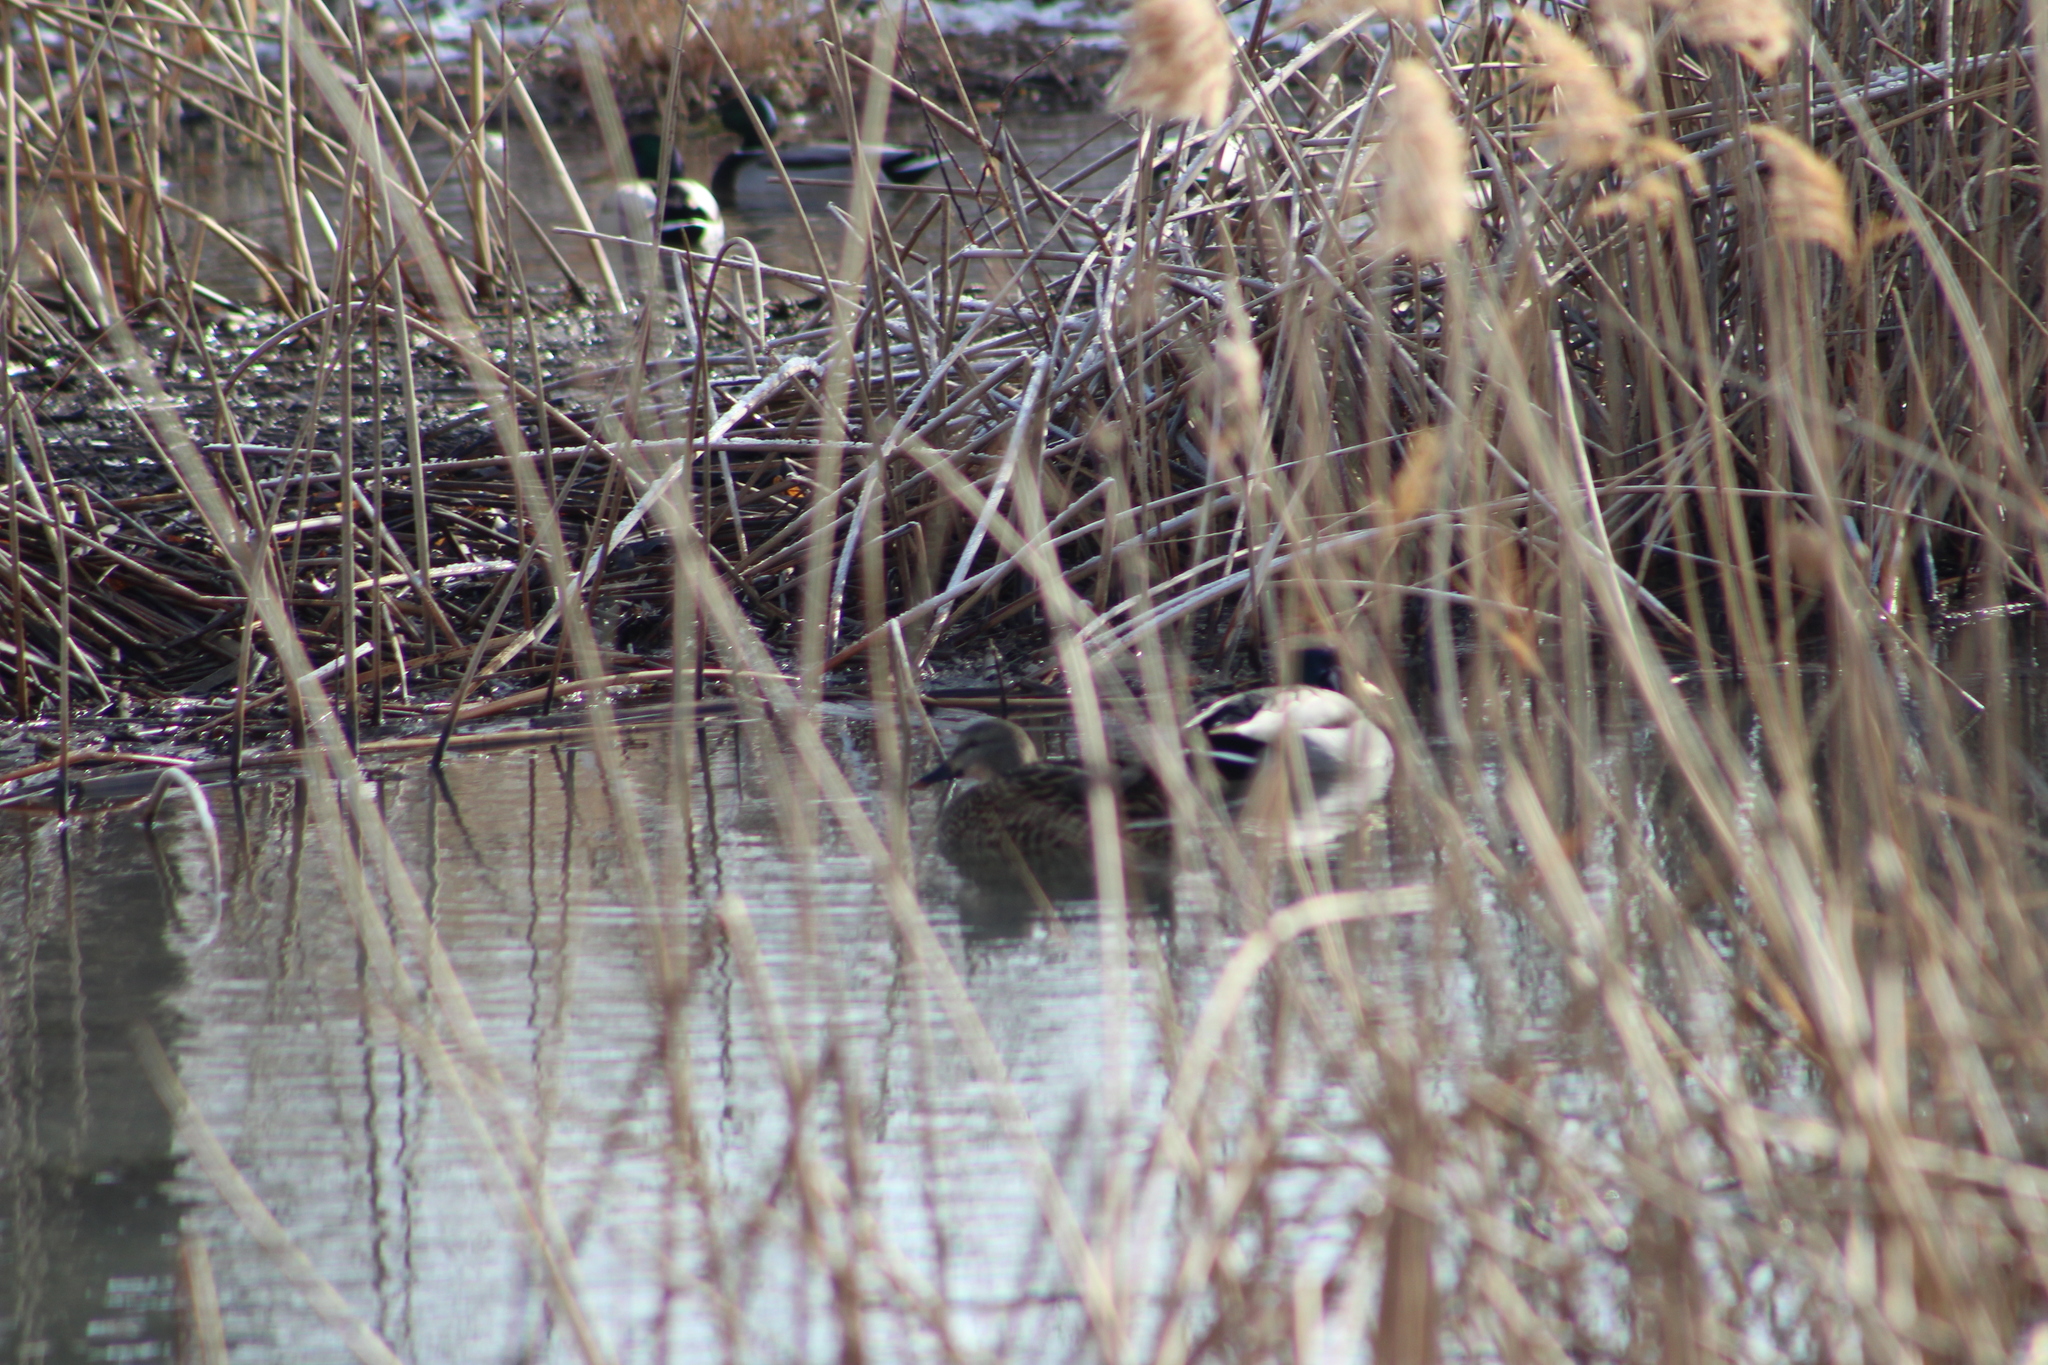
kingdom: Animalia
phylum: Chordata
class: Aves
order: Anseriformes
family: Anatidae
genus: Anas
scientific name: Anas platyrhynchos
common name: Mallard
